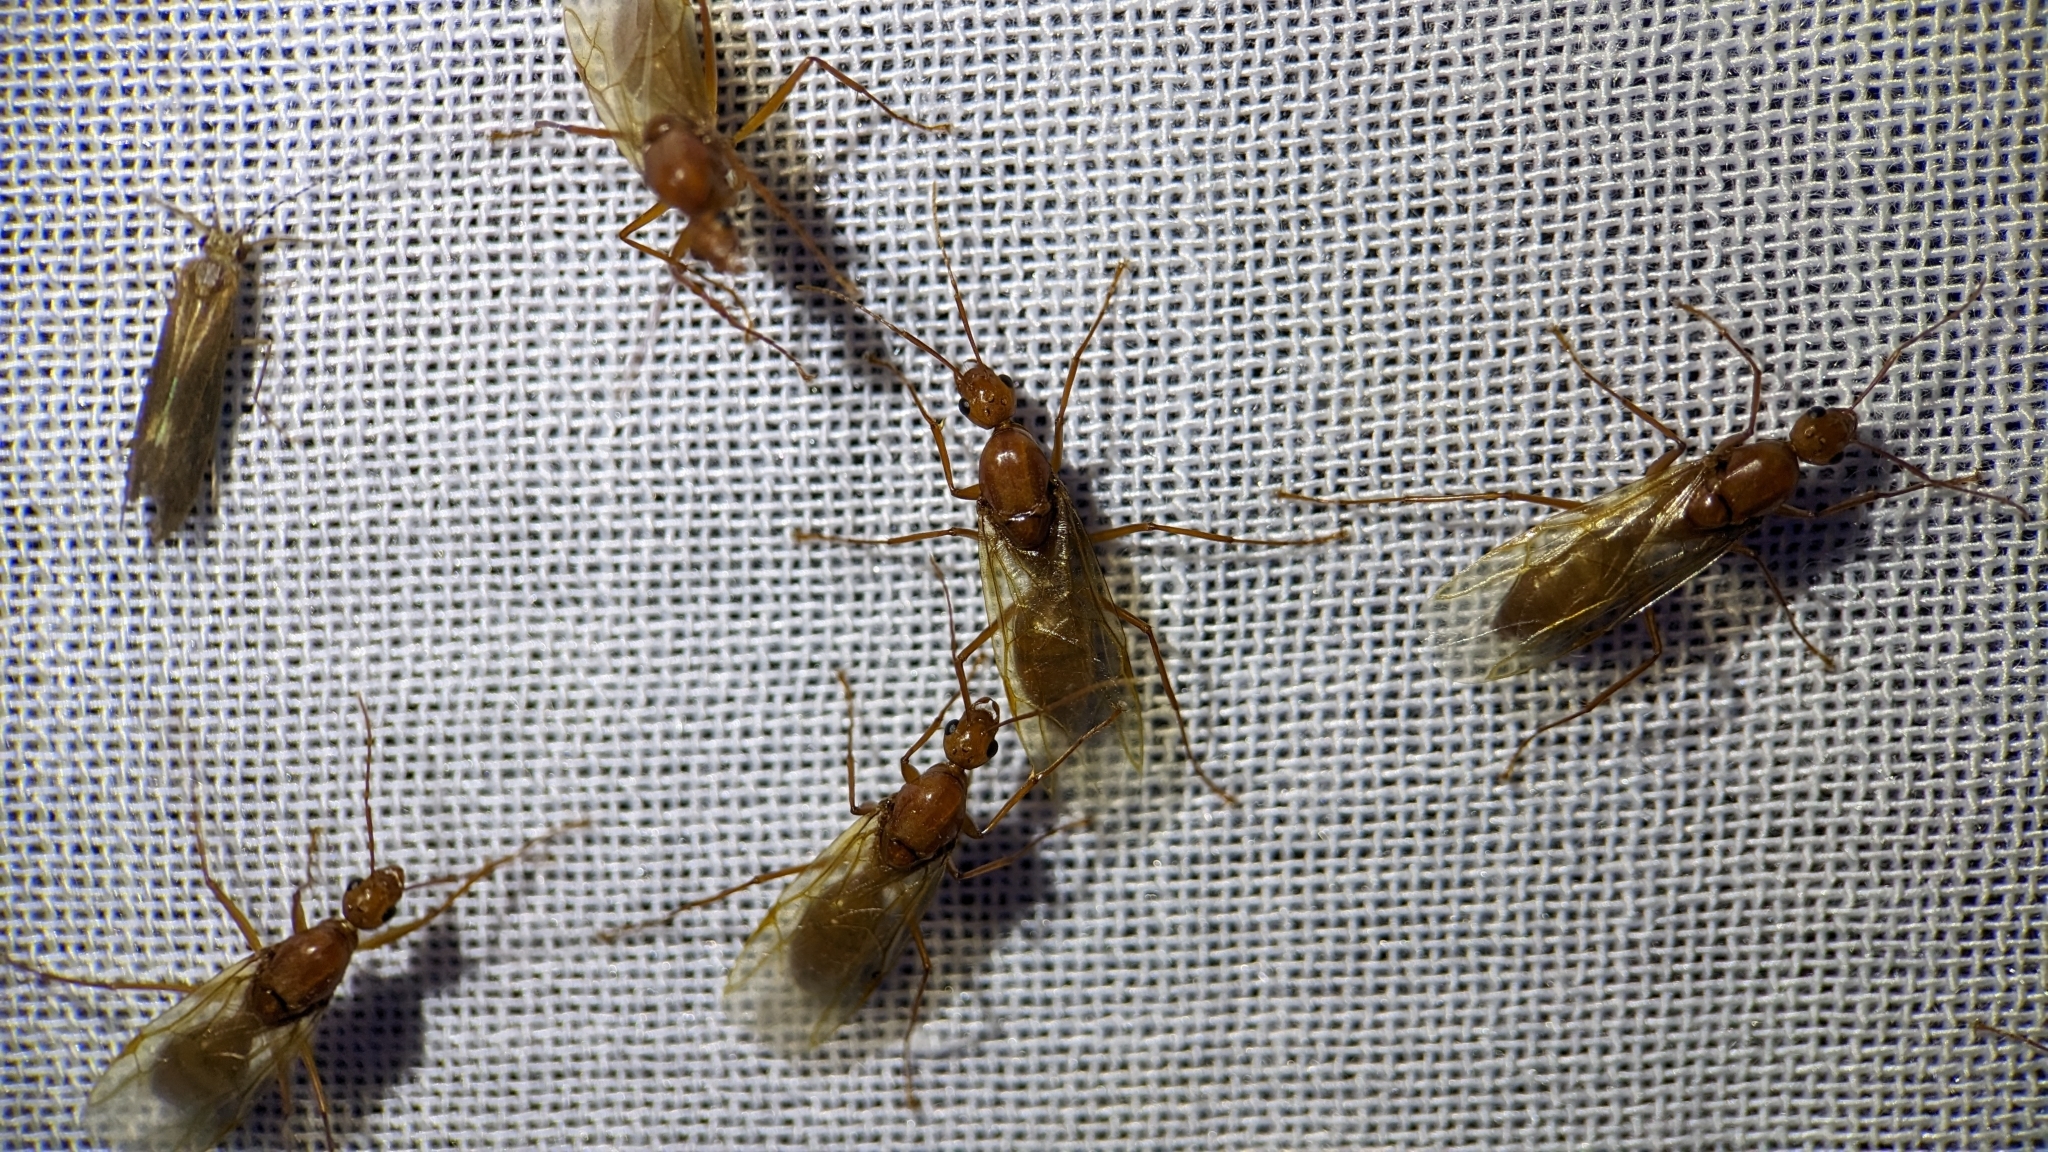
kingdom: Animalia
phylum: Arthropoda
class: Insecta
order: Hymenoptera
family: Formicidae
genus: Camponotus
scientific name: Camponotus castaneus
